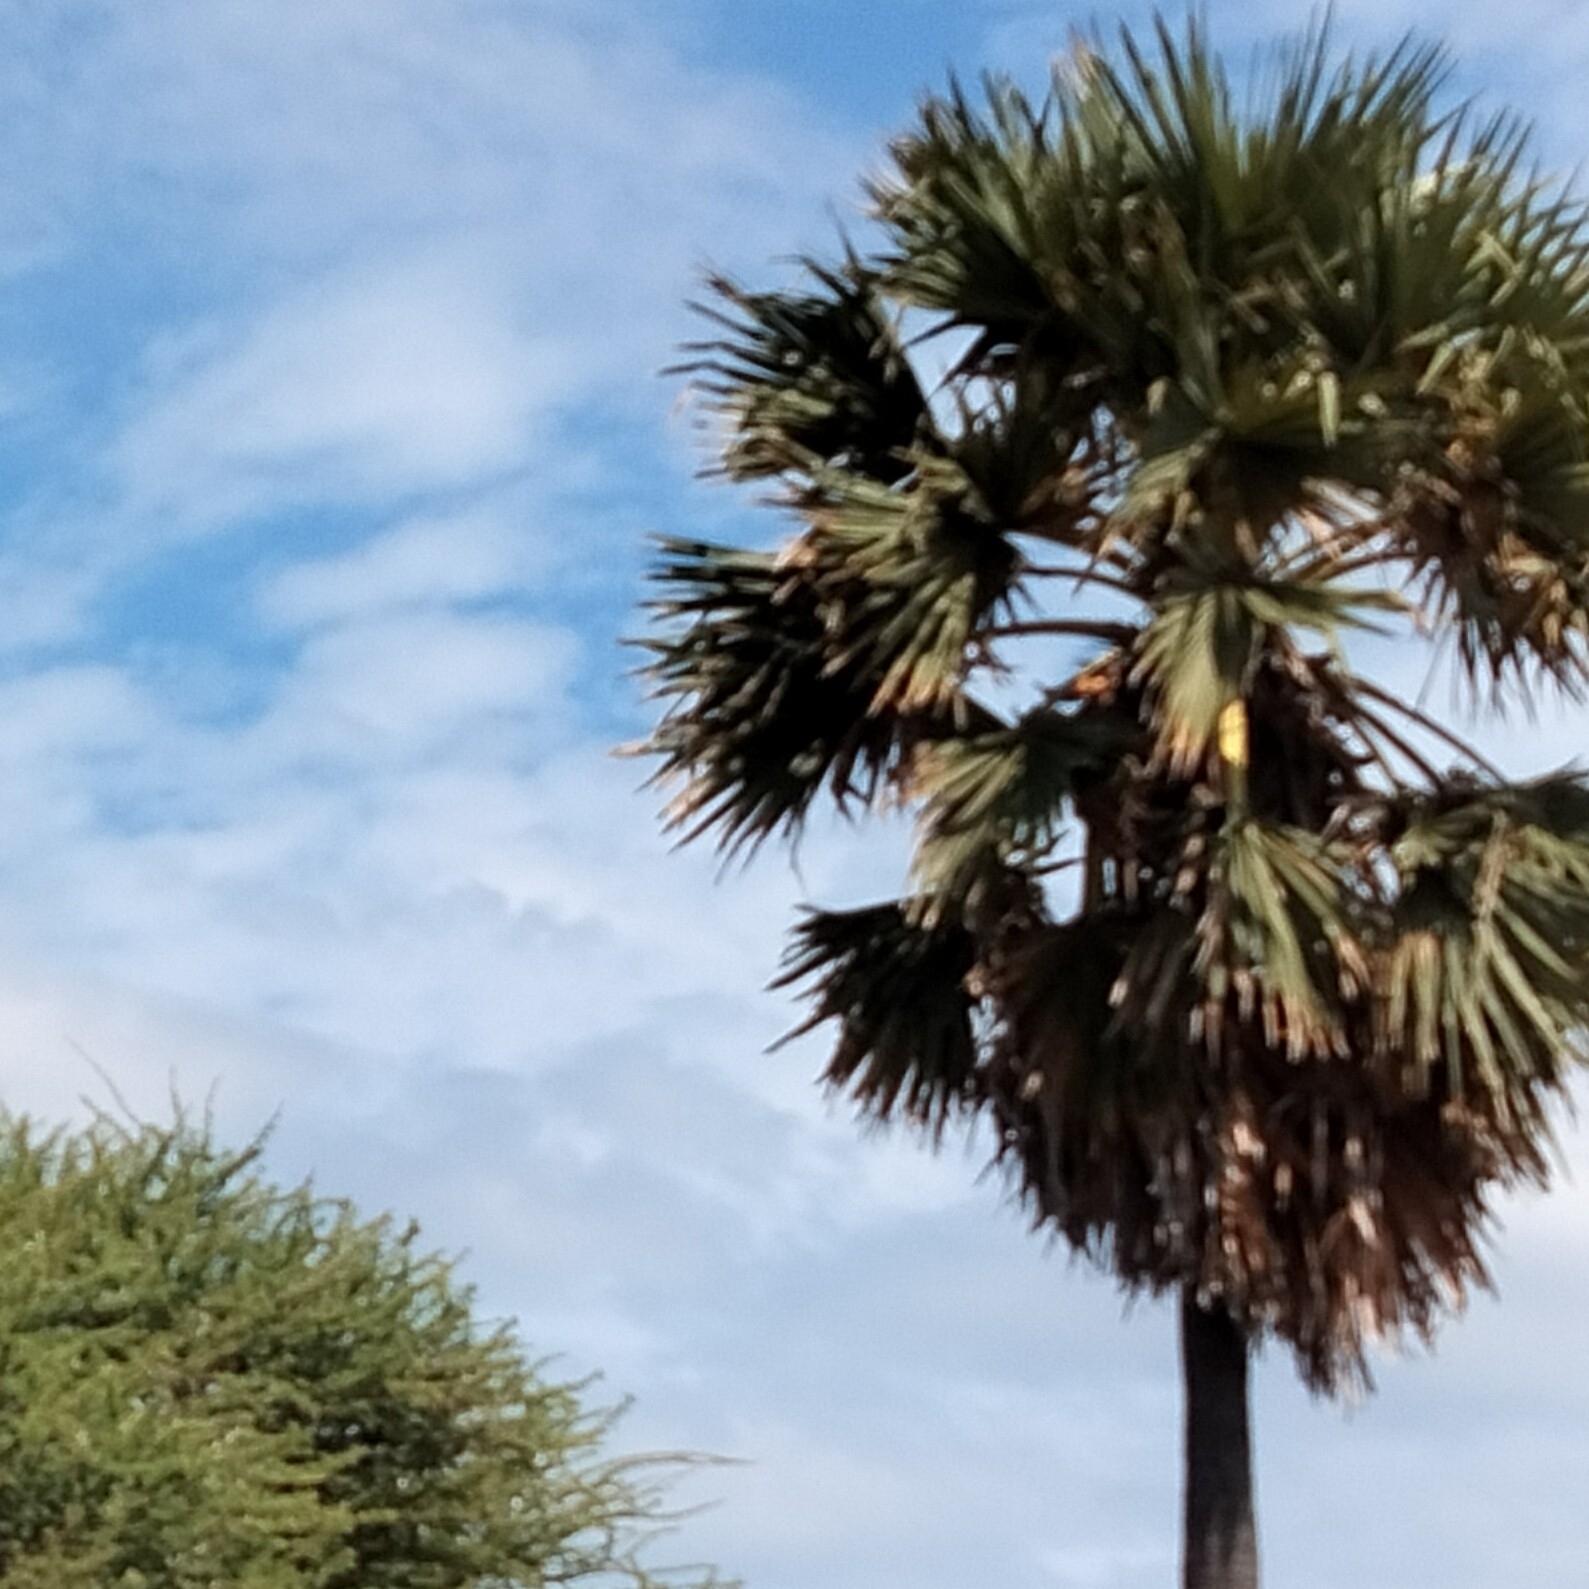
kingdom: Plantae
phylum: Tracheophyta
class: Liliopsida
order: Arecales
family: Arecaceae
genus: Borassus
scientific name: Borassus flabellifer
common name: Palmyra palm
